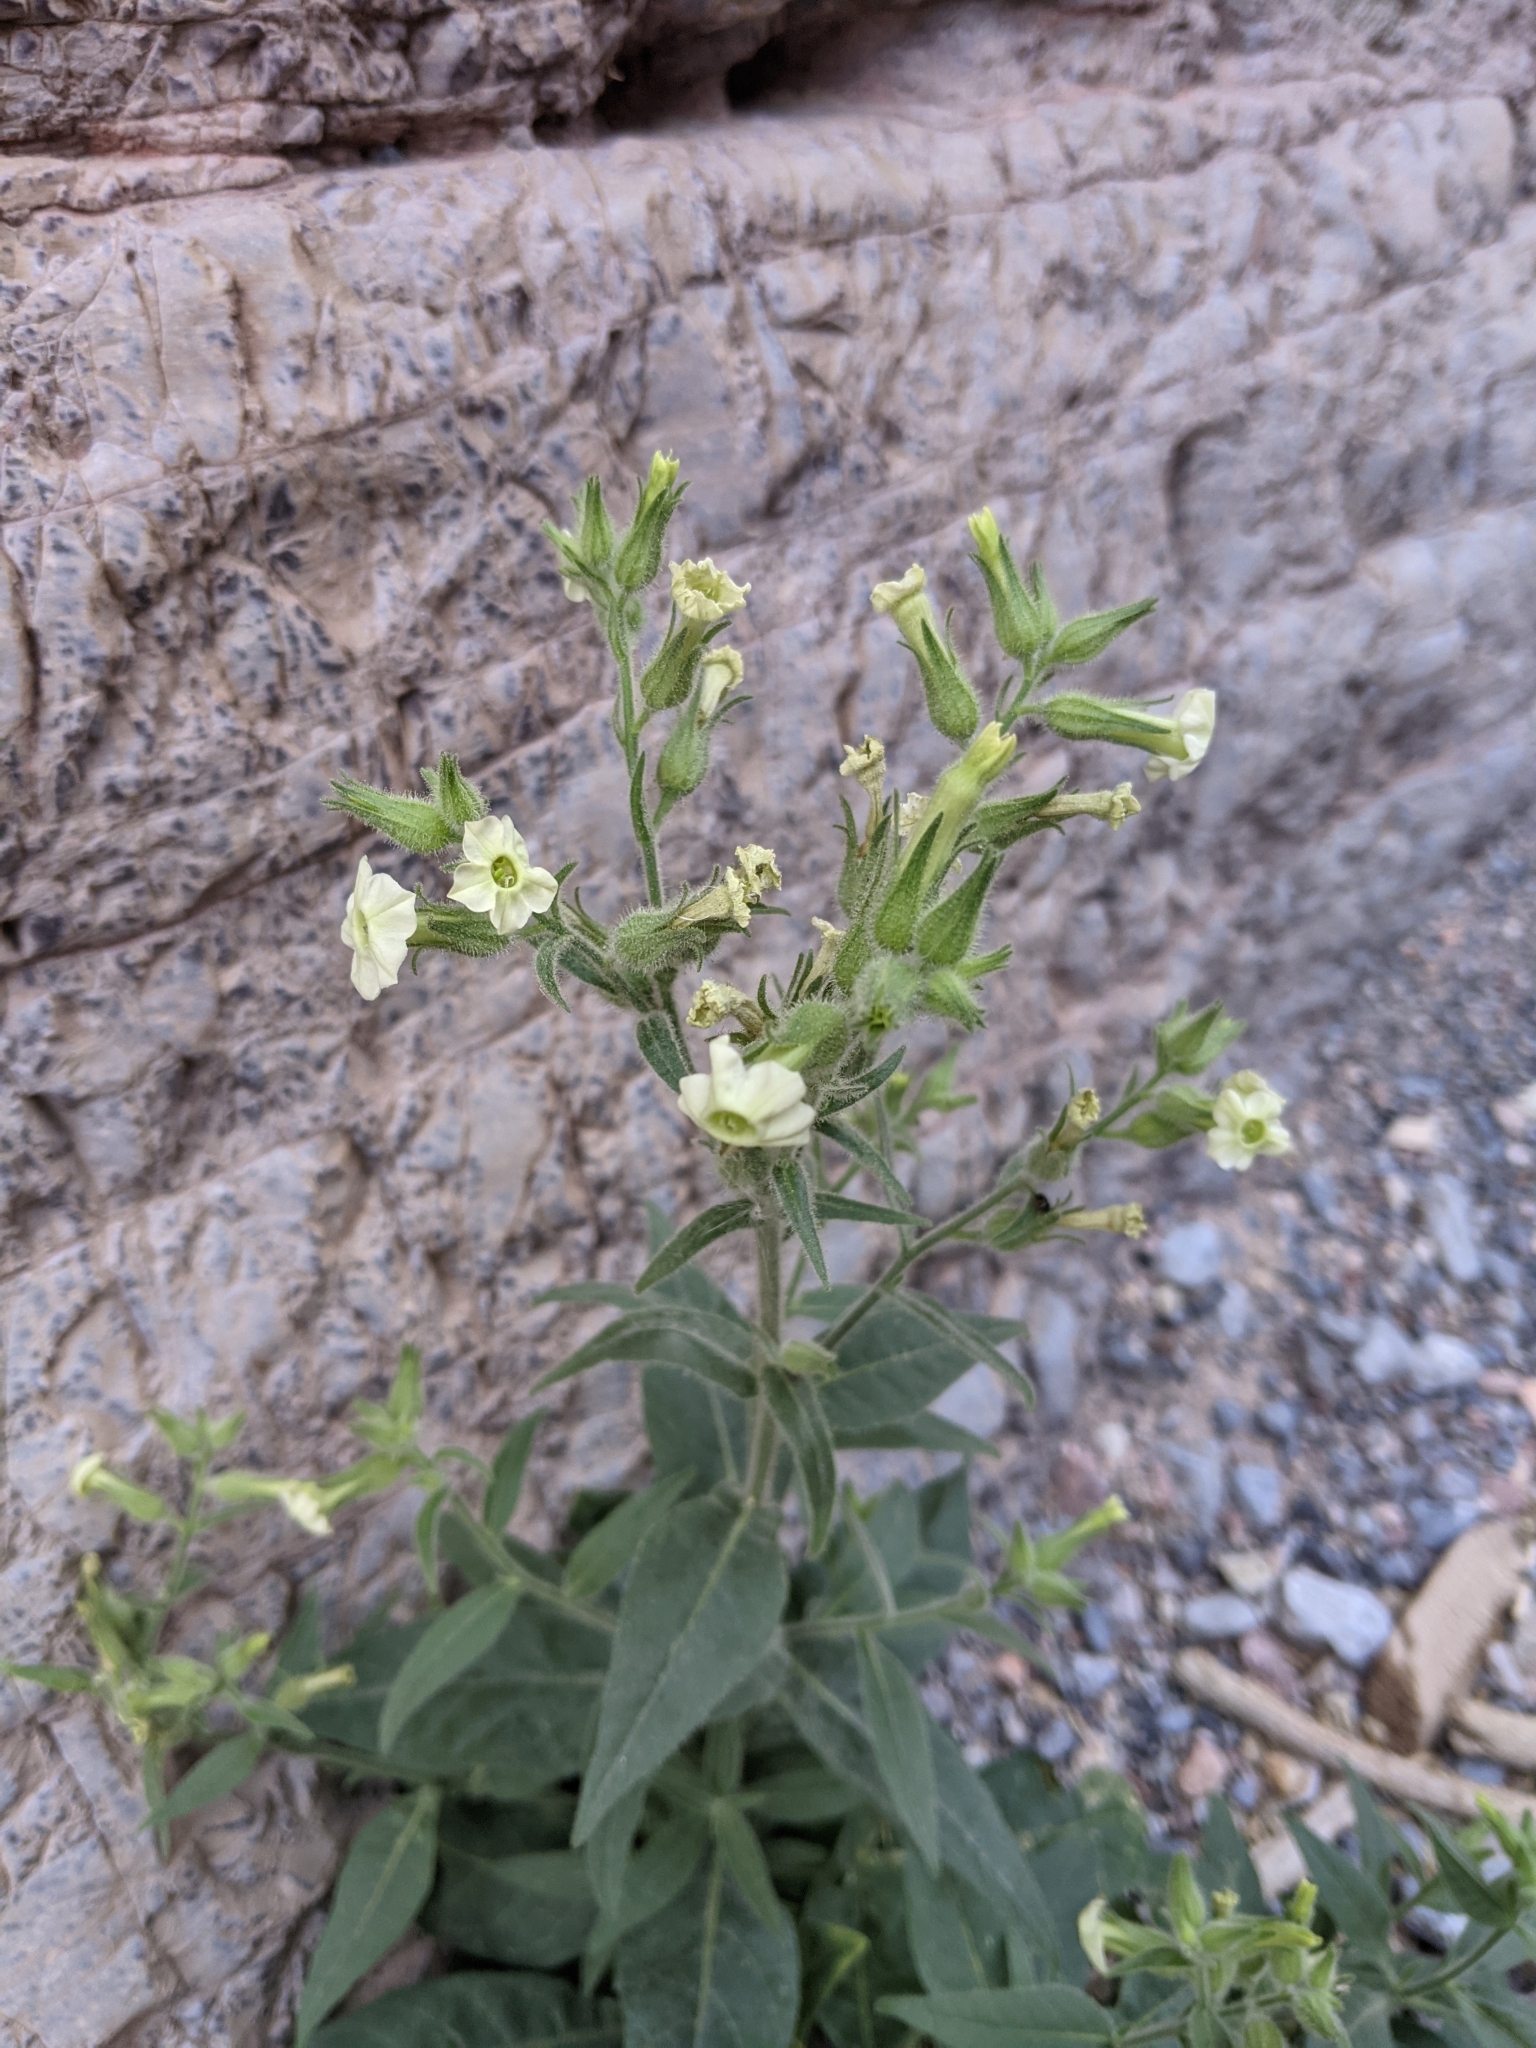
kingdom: Plantae
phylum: Tracheophyta
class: Magnoliopsida
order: Solanales
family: Solanaceae
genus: Nicotiana
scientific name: Nicotiana obtusifolia
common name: Desert tobacco
